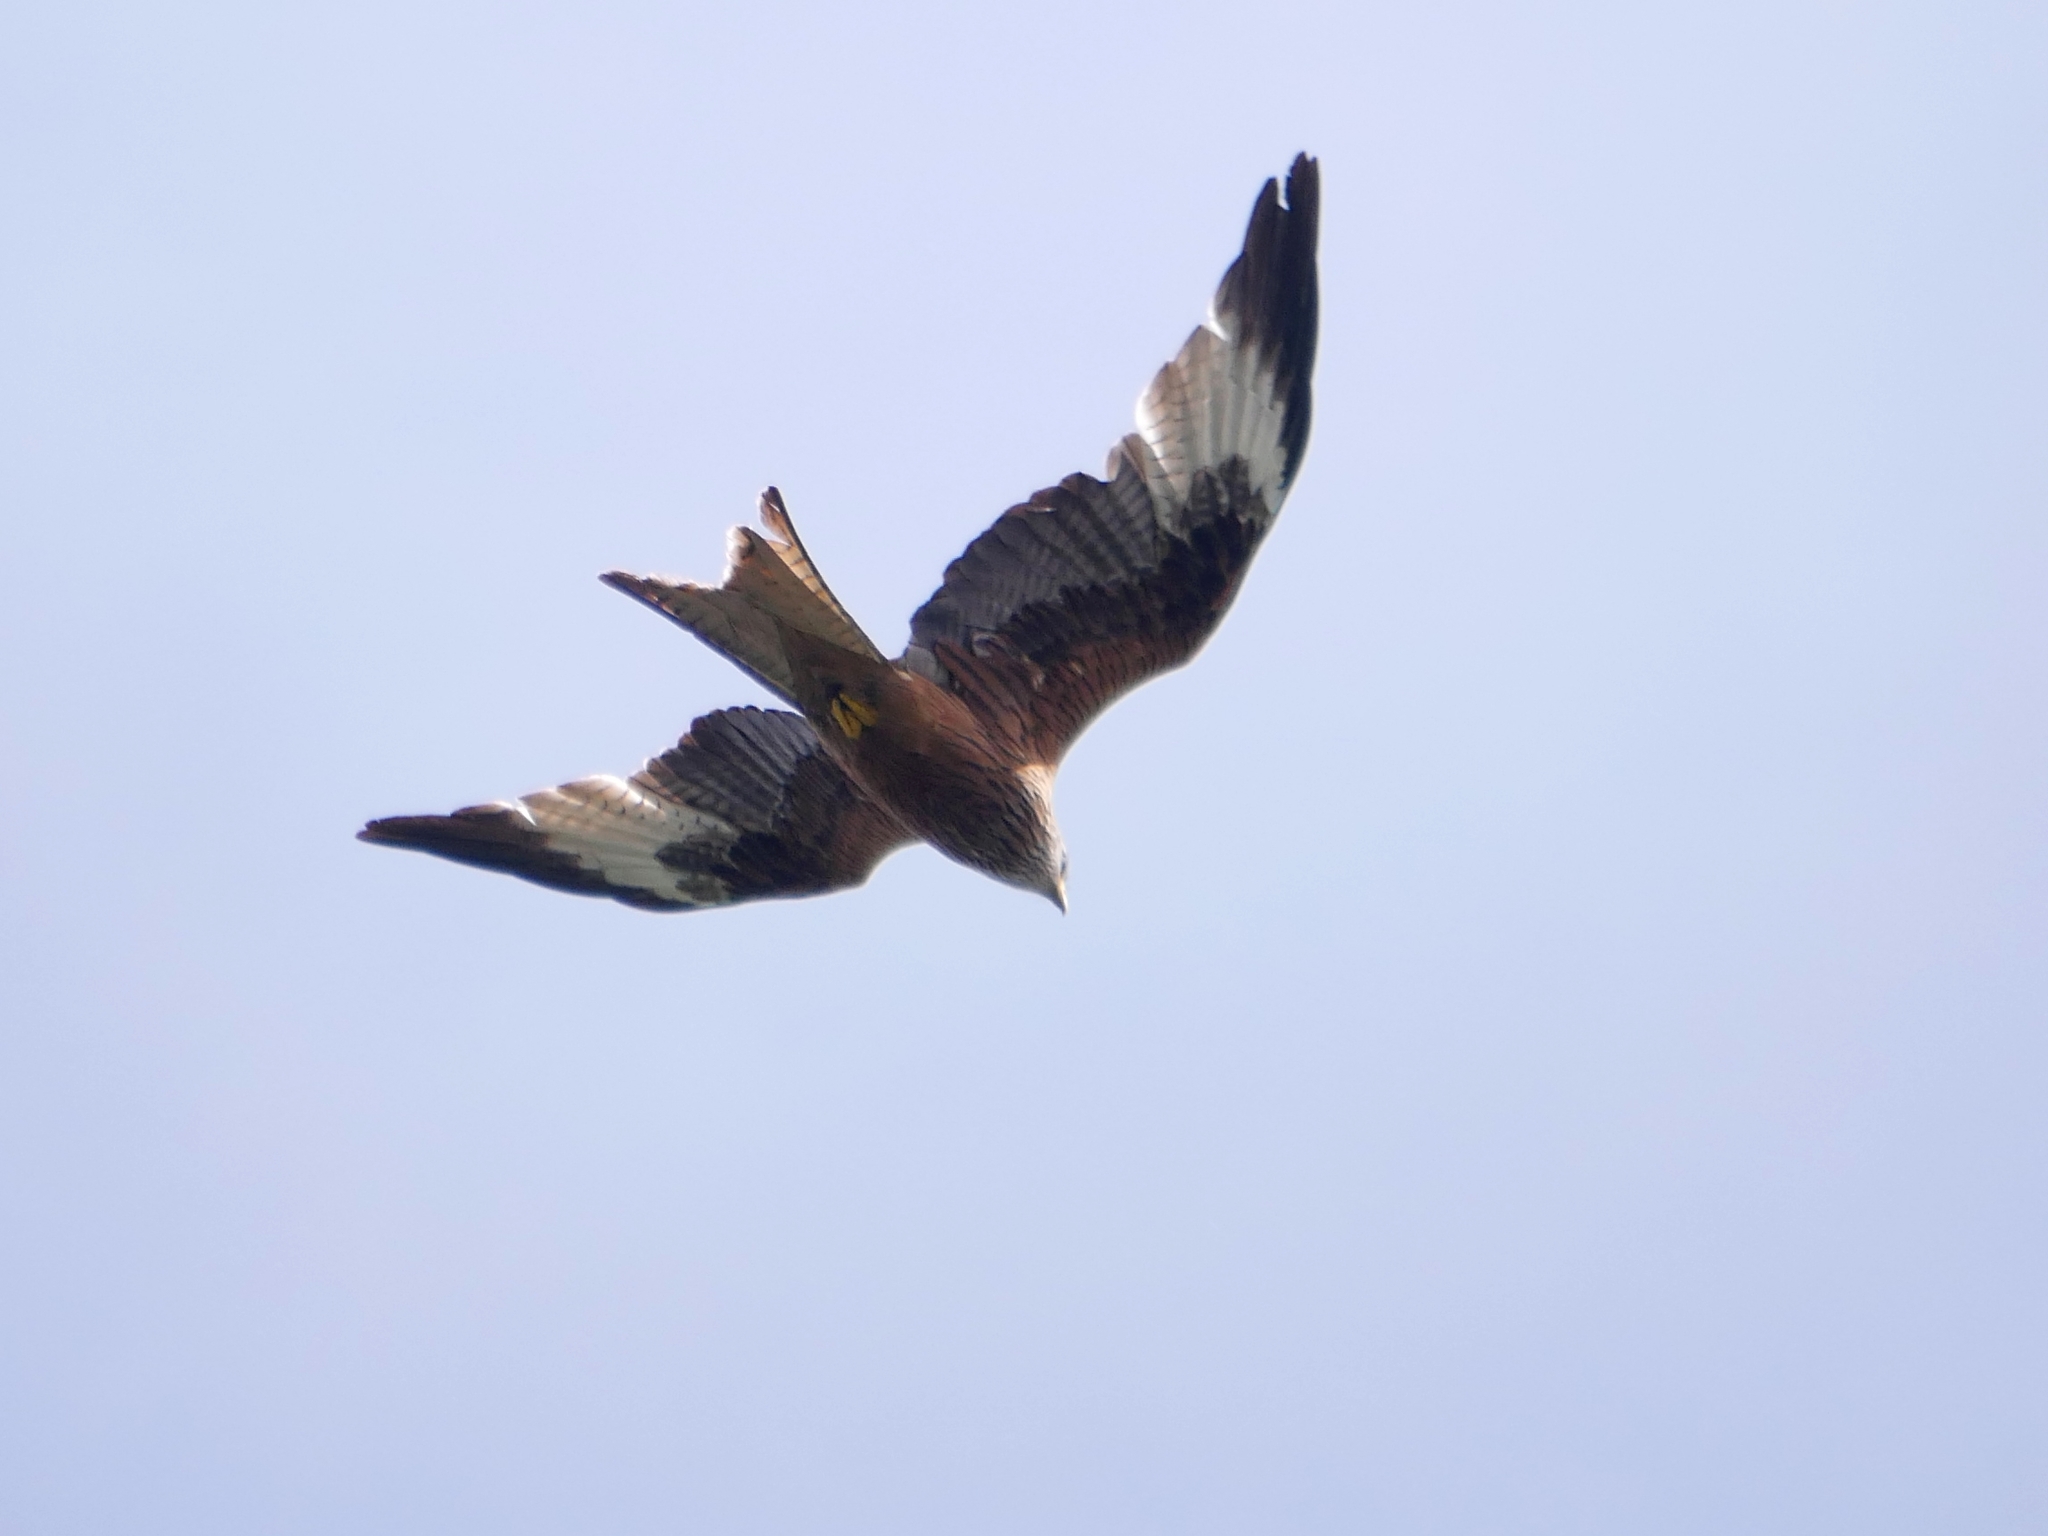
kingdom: Animalia
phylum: Chordata
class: Aves
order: Accipitriformes
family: Accipitridae
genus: Milvus
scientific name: Milvus milvus
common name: Red kite
